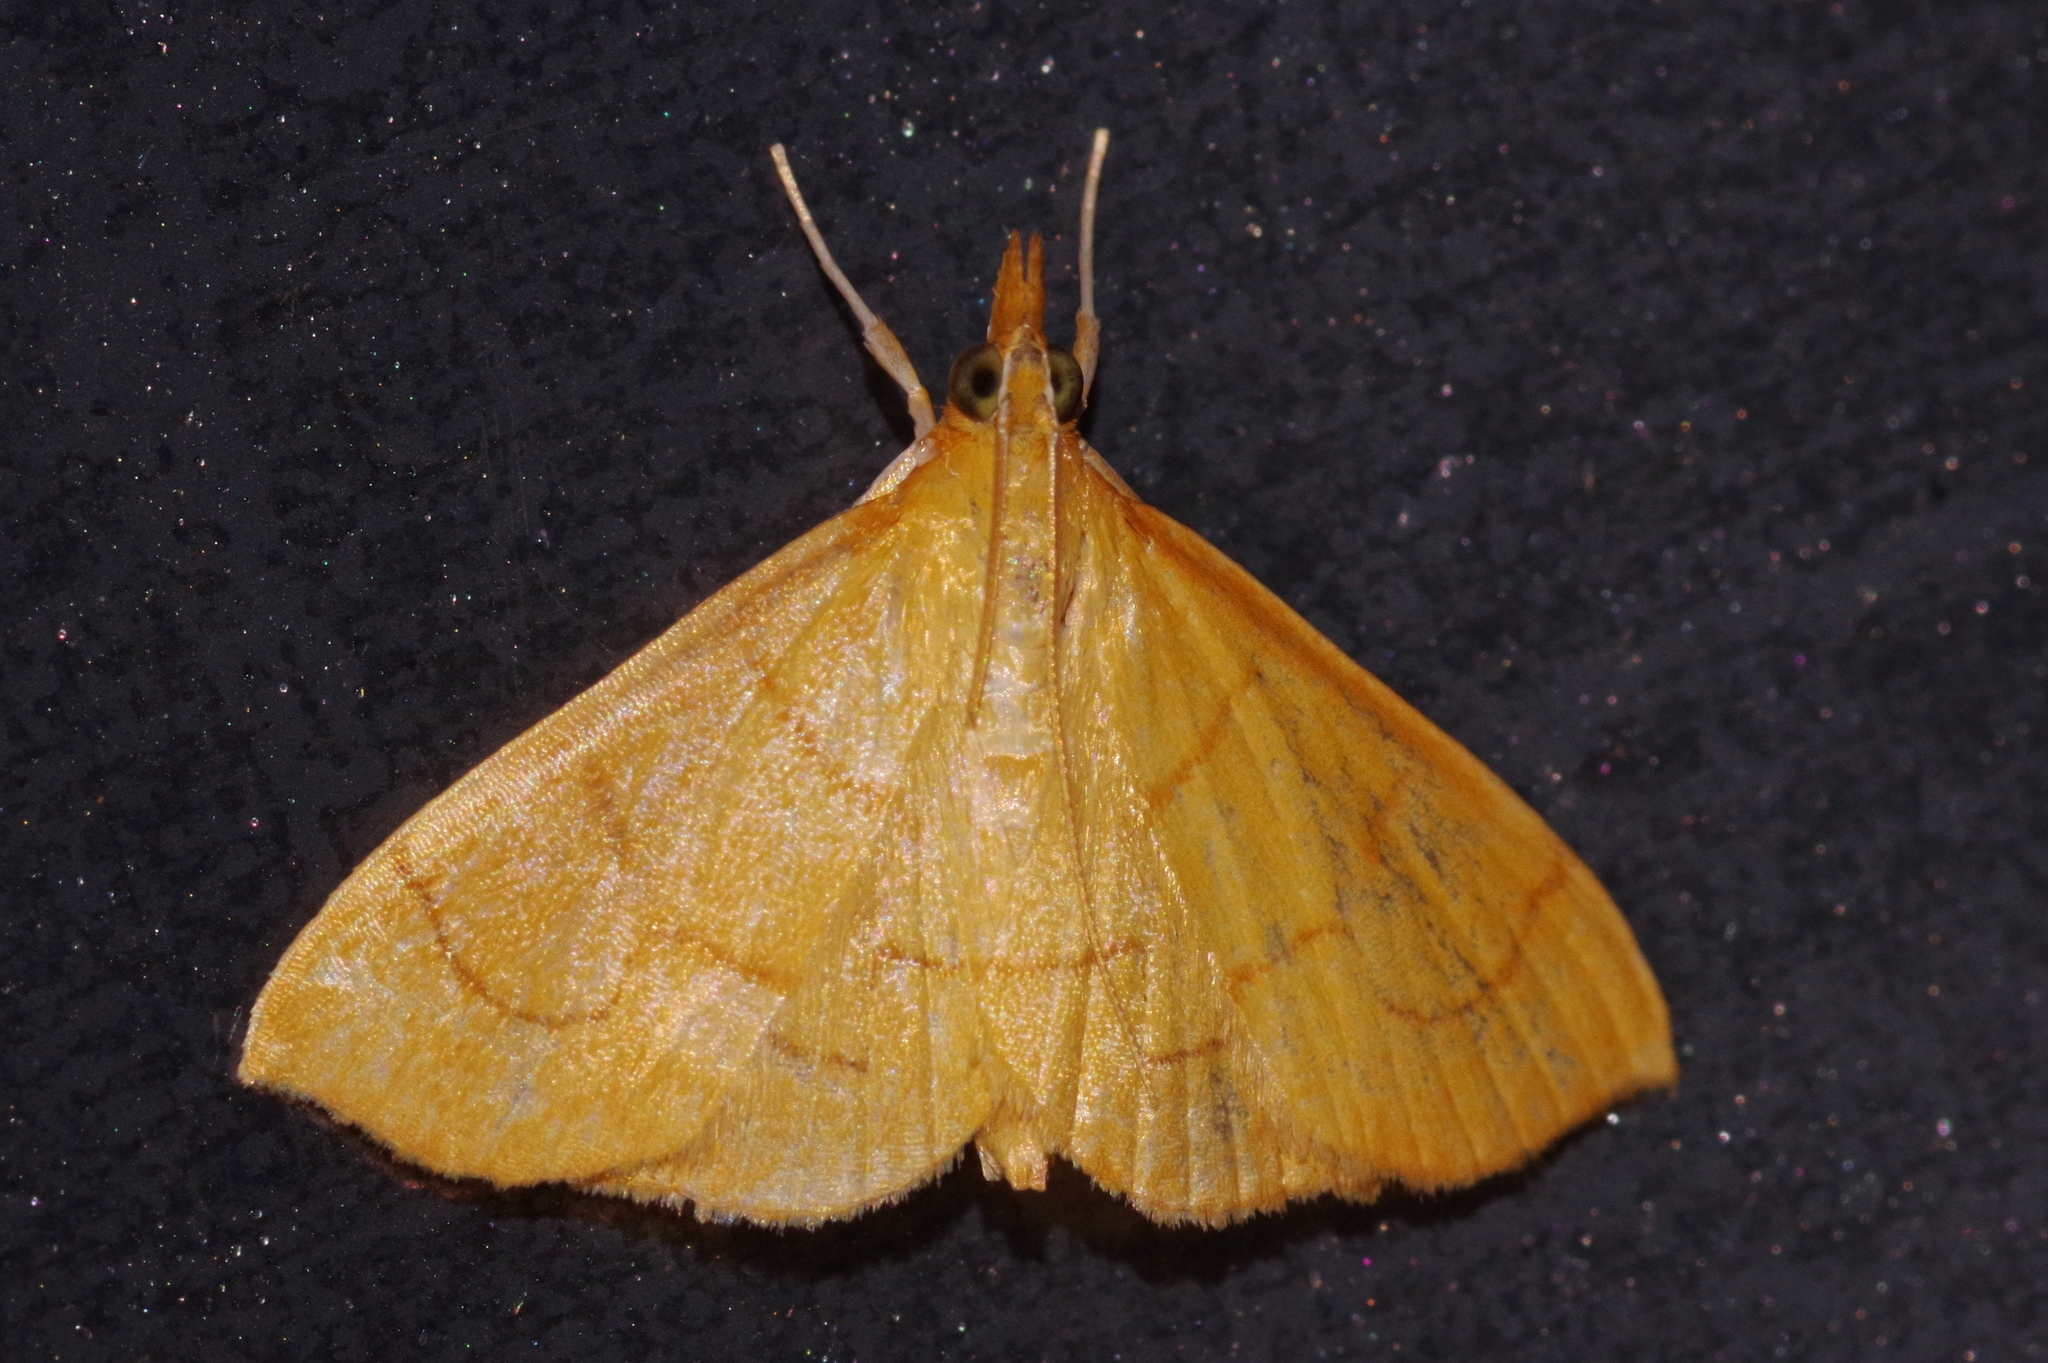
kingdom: Animalia
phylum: Arthropoda
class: Insecta
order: Lepidoptera
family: Crambidae
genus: Ecpyrrhorrhoe
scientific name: Ecpyrrhorrhoe minnehaha
